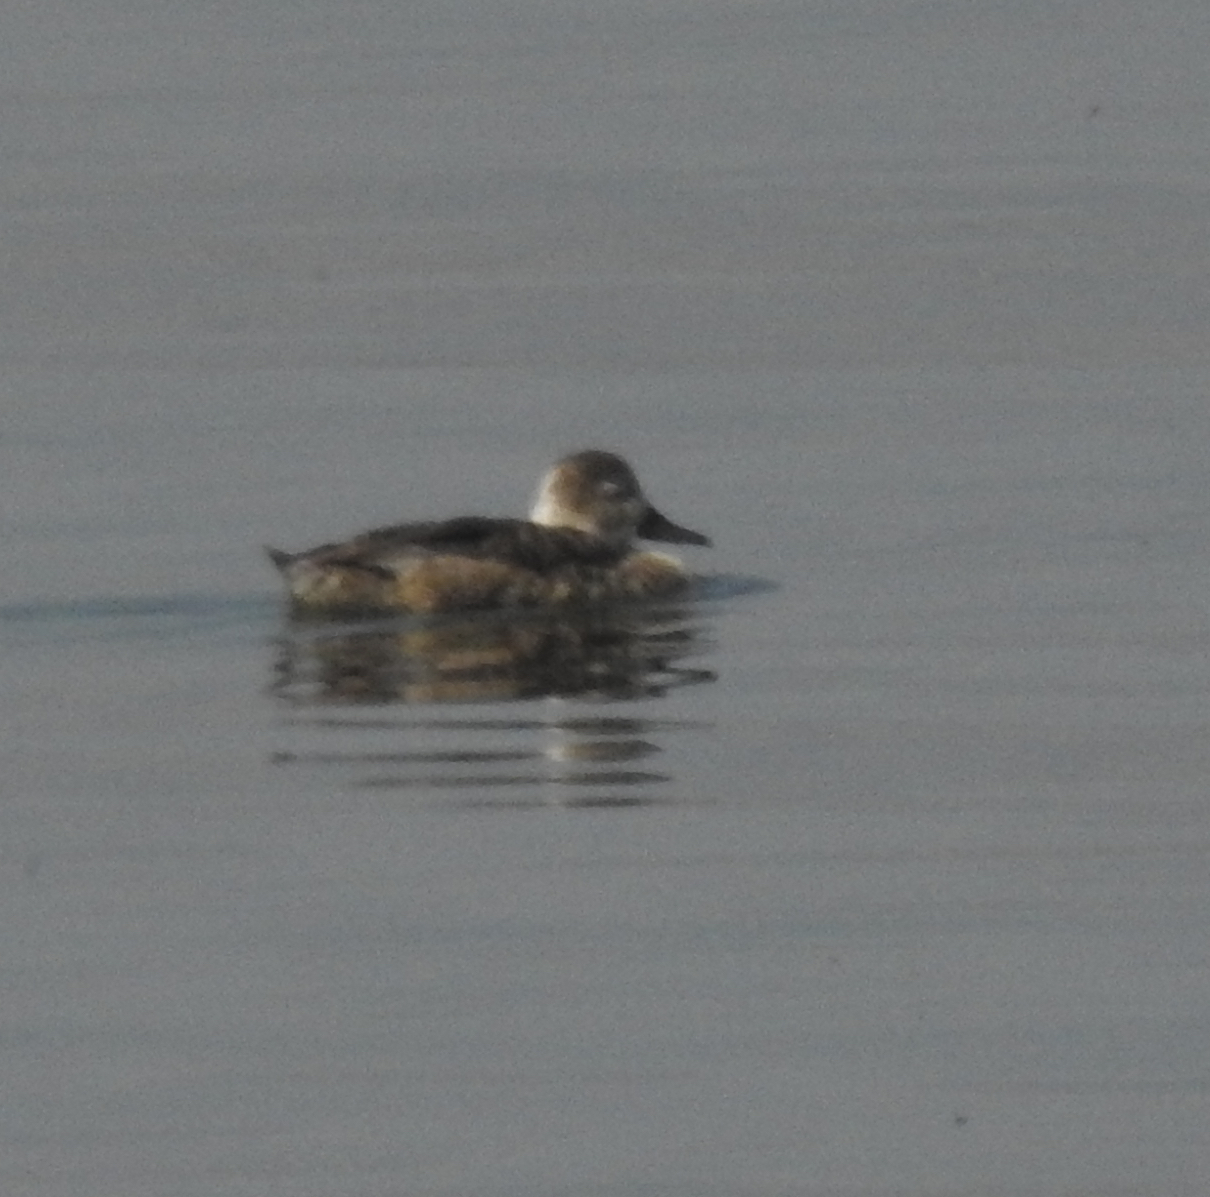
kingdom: Animalia
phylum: Chordata
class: Aves
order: Anseriformes
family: Anatidae
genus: Aythya
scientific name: Aythya americana
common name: Redhead
